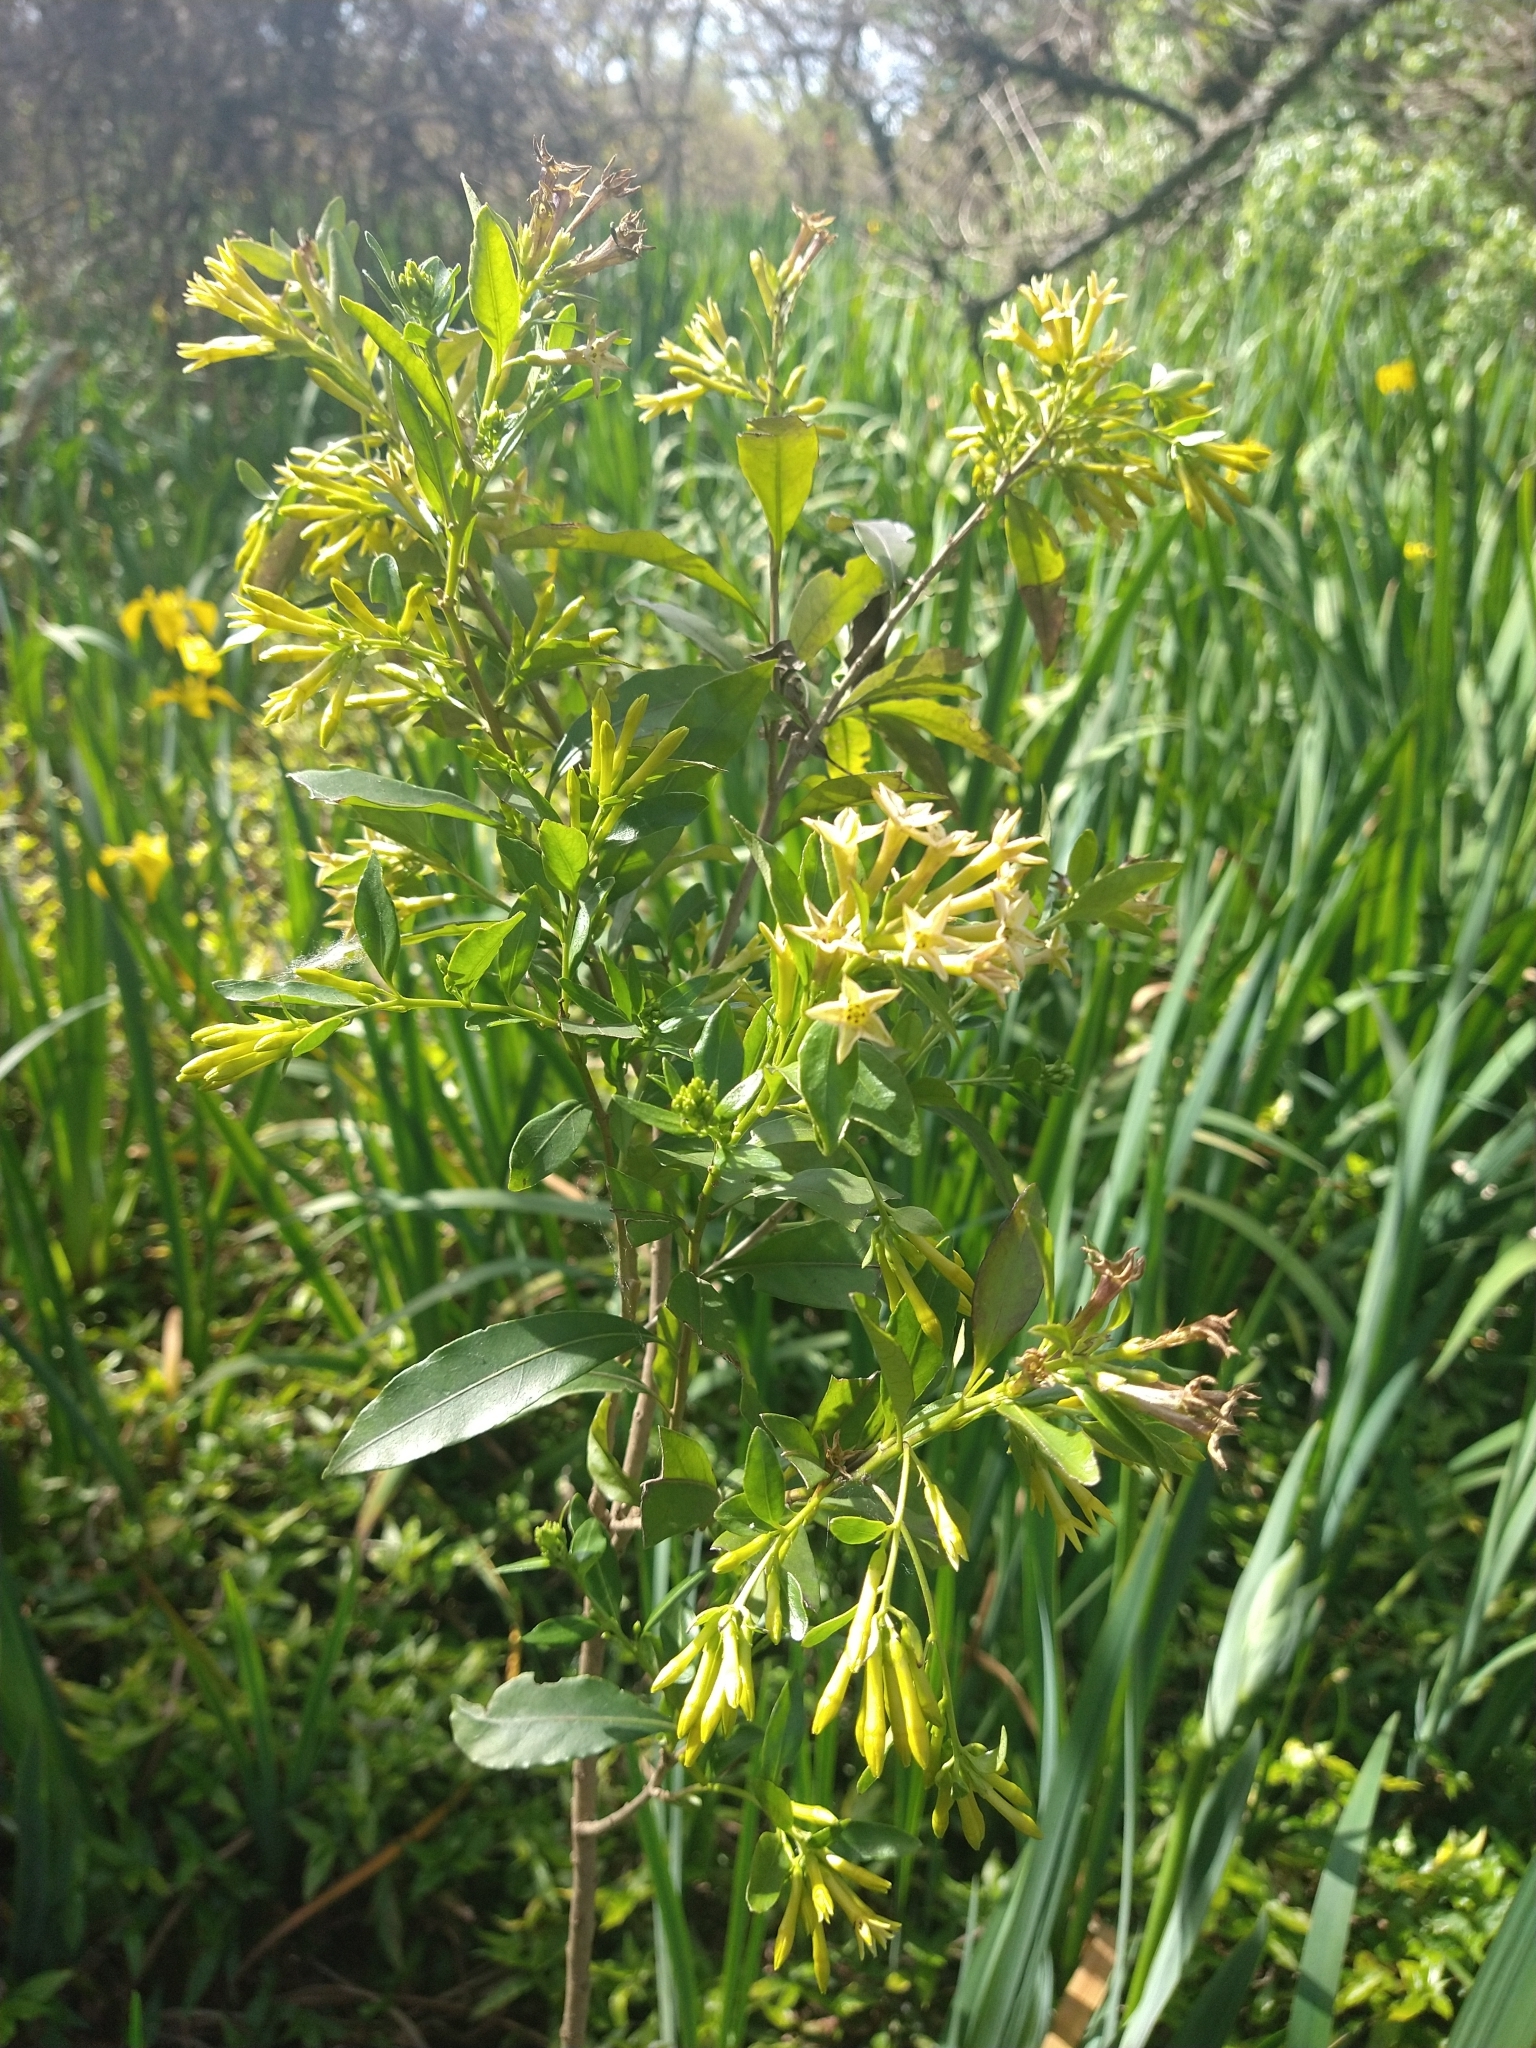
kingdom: Plantae
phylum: Tracheophyta
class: Magnoliopsida
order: Solanales
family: Solanaceae
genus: Cestrum
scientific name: Cestrum parqui
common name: Chilean cestrum
